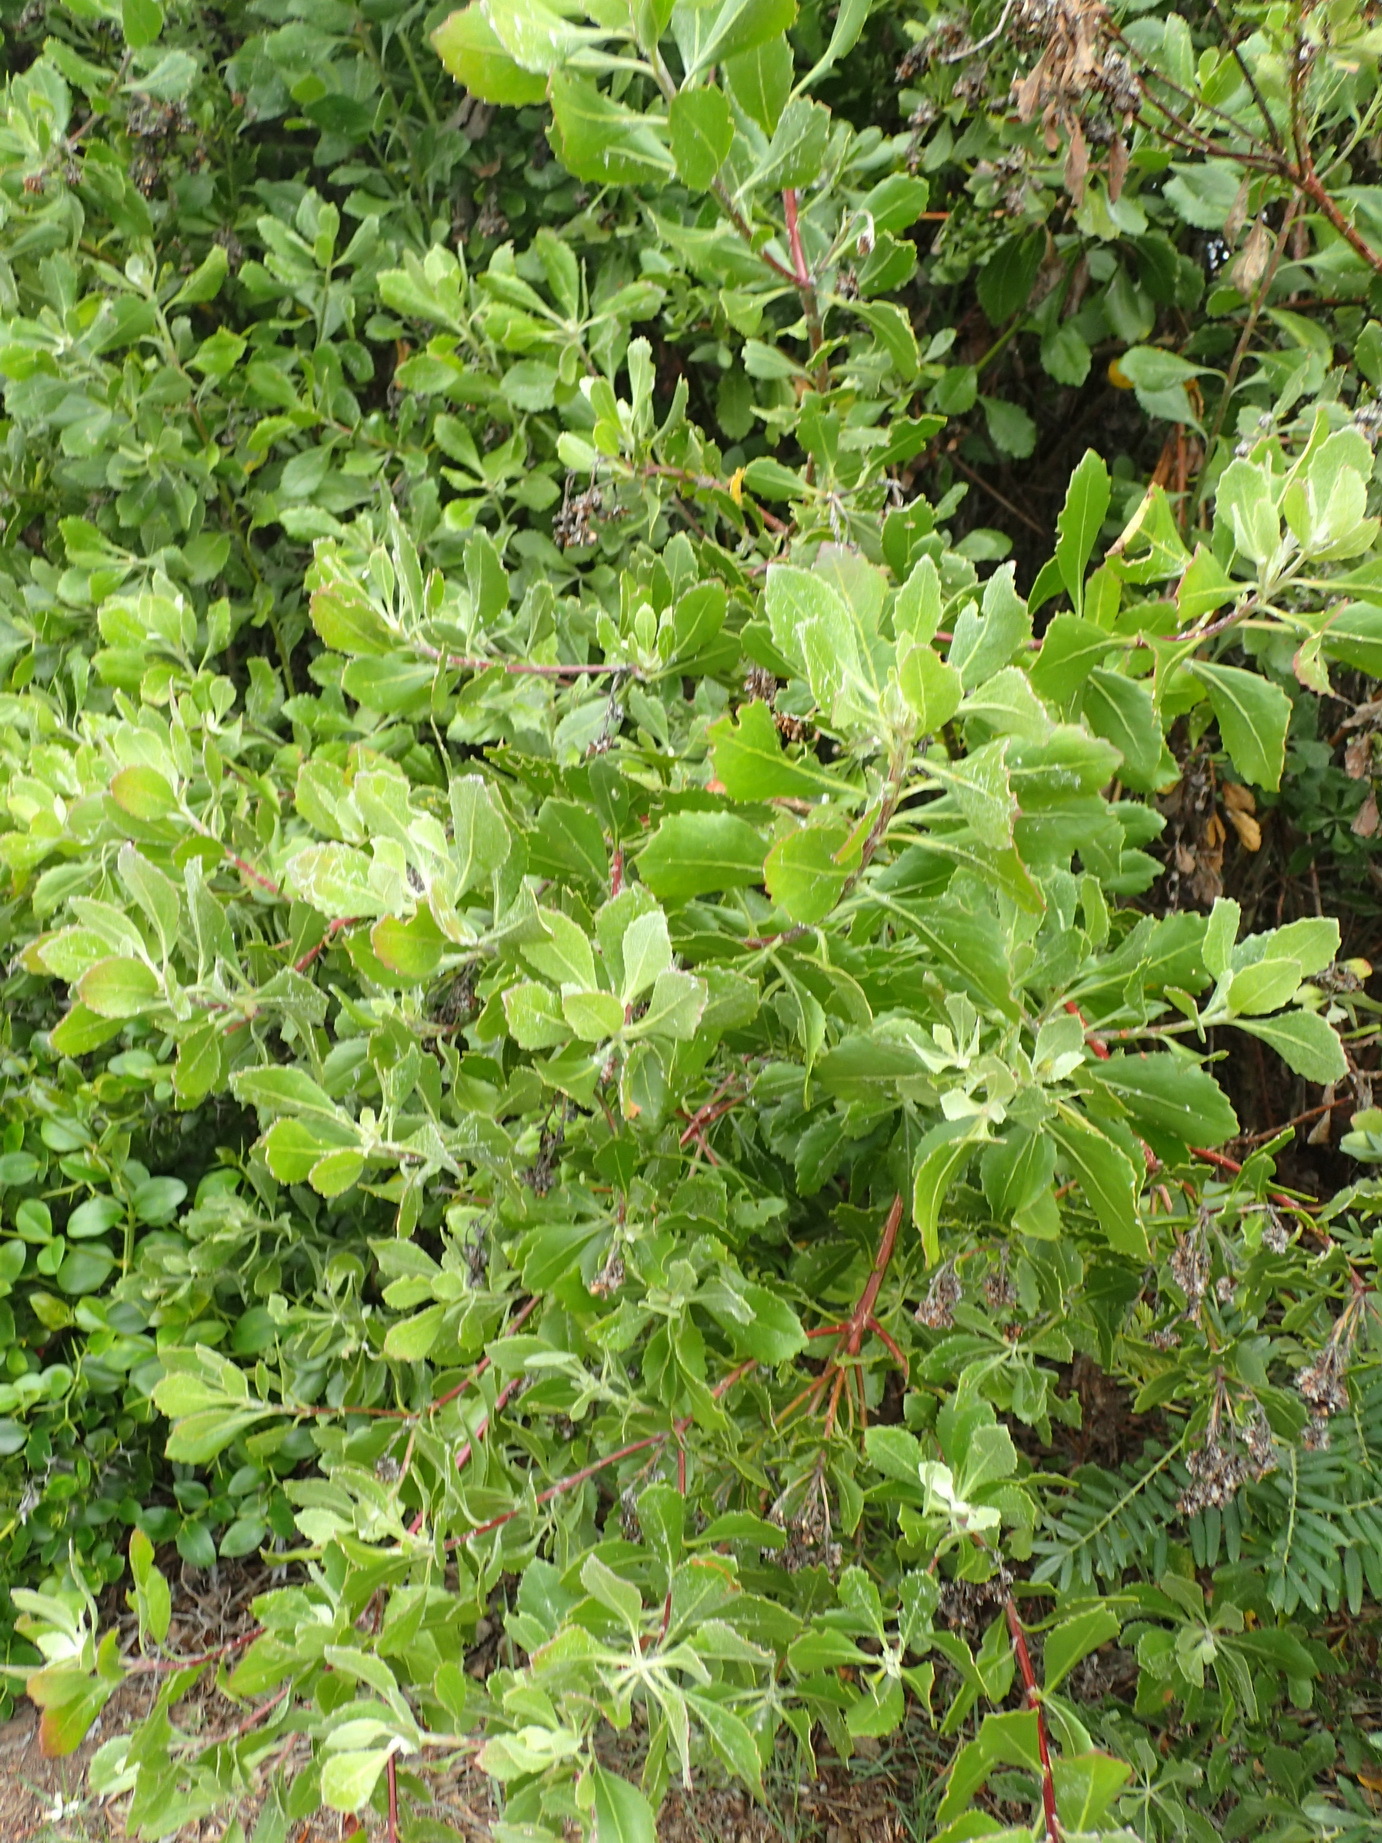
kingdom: Plantae
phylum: Tracheophyta
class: Magnoliopsida
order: Asterales
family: Asteraceae
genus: Osteospermum
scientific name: Osteospermum moniliferum
